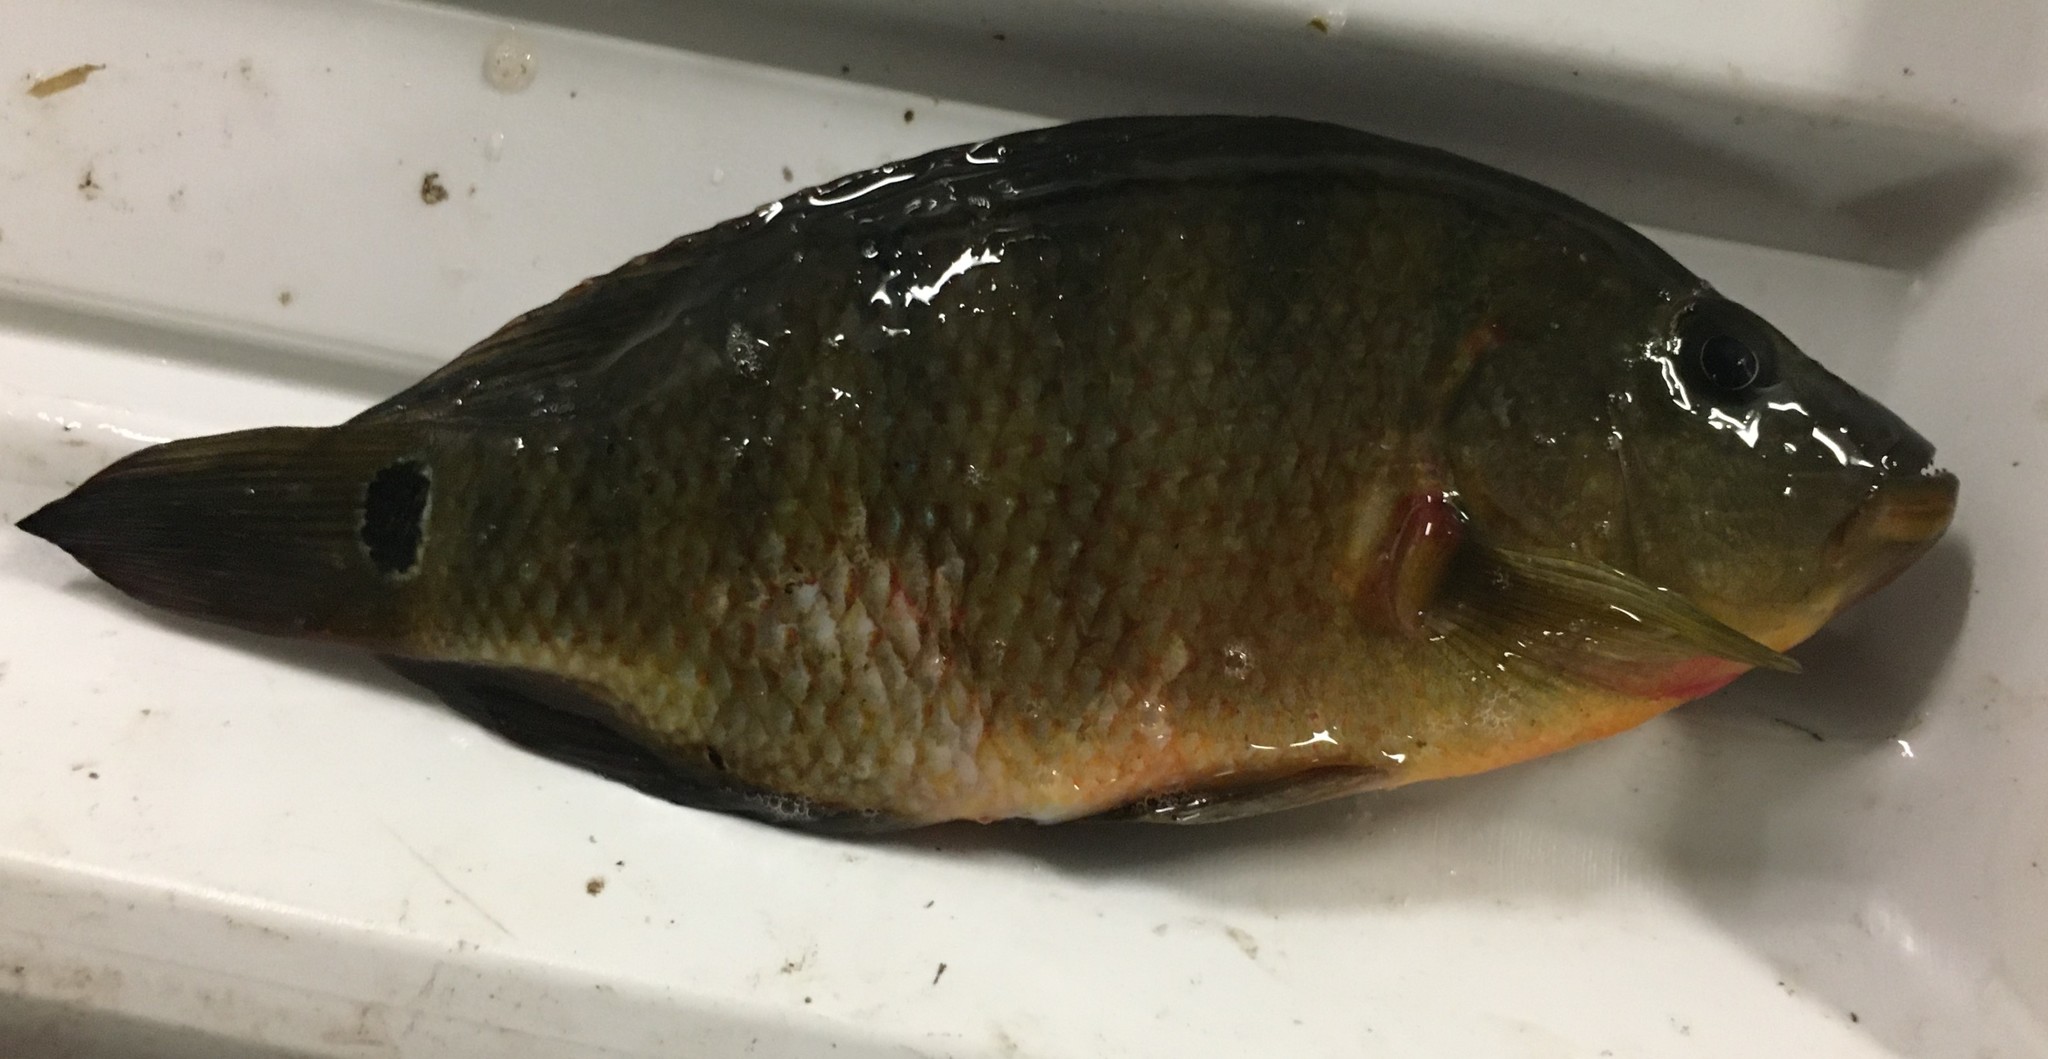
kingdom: Animalia
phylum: Chordata
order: Perciformes
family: Cichlidae
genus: Mayaheros
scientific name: Mayaheros urophthalmus
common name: Mayan cichlid
